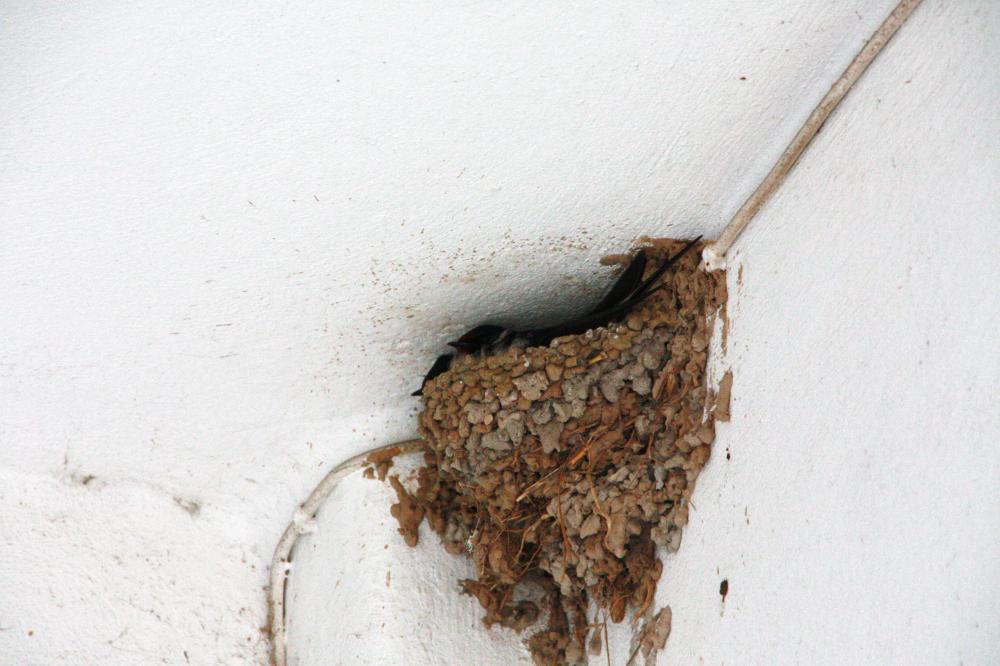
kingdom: Animalia
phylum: Chordata
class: Aves
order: Passeriformes
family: Hirundinidae
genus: Hirundo
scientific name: Hirundo rustica
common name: Barn swallow
